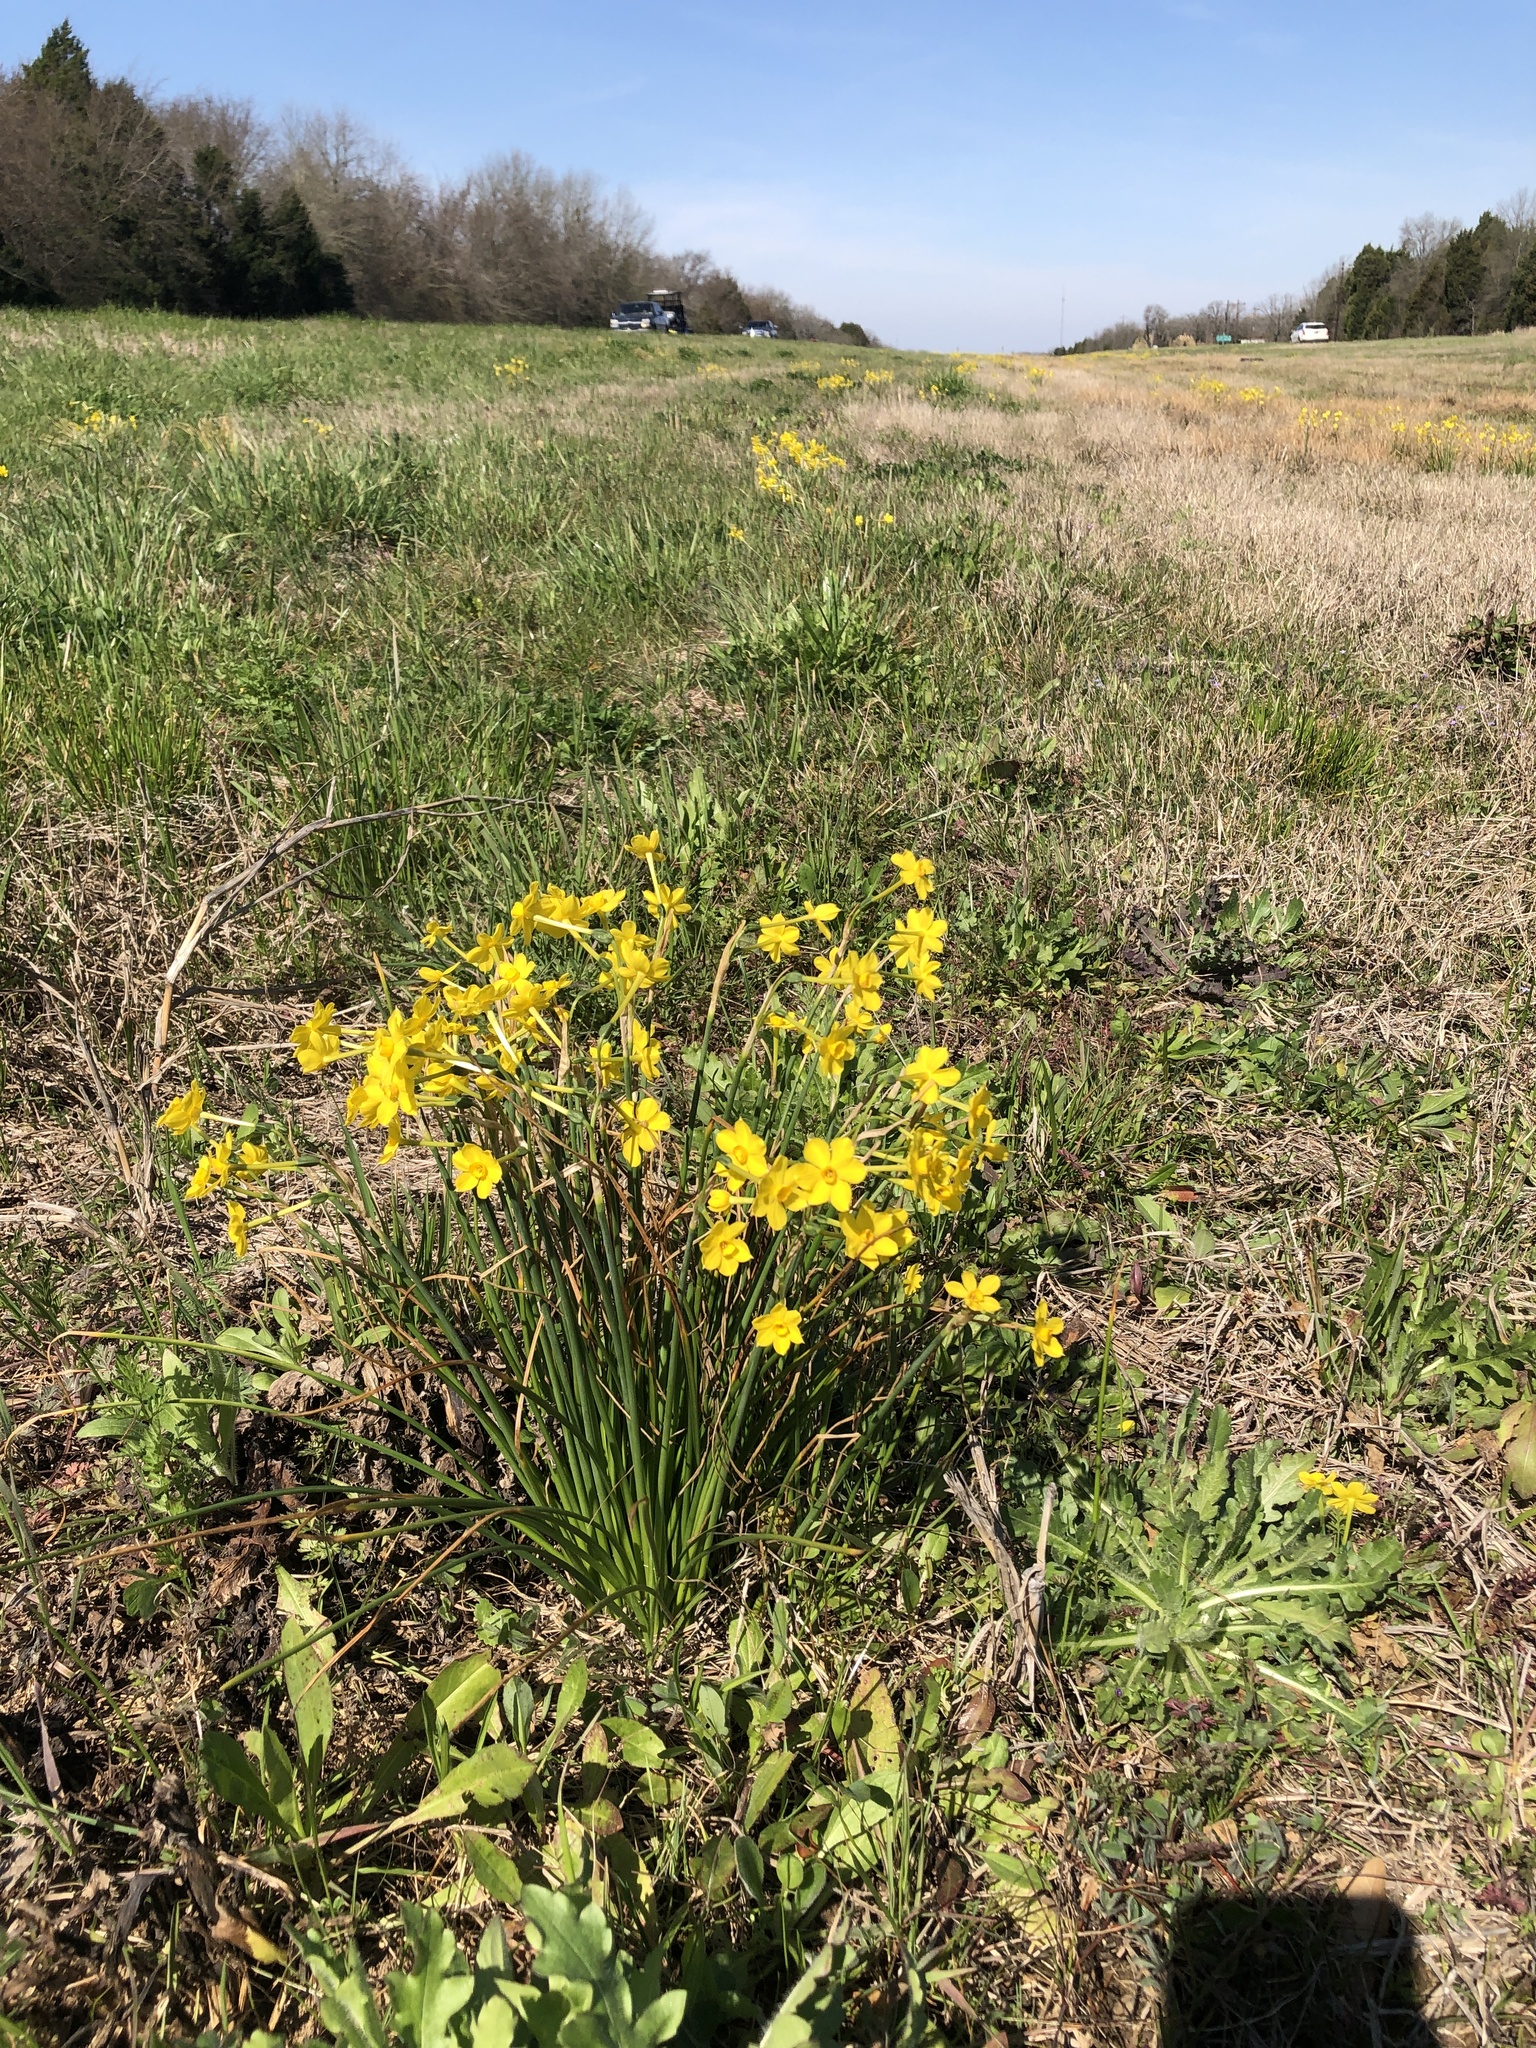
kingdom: Plantae
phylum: Tracheophyta
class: Liliopsida
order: Asparagales
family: Amaryllidaceae
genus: Narcissus
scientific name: Narcissus jonquilla
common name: Jonquil
